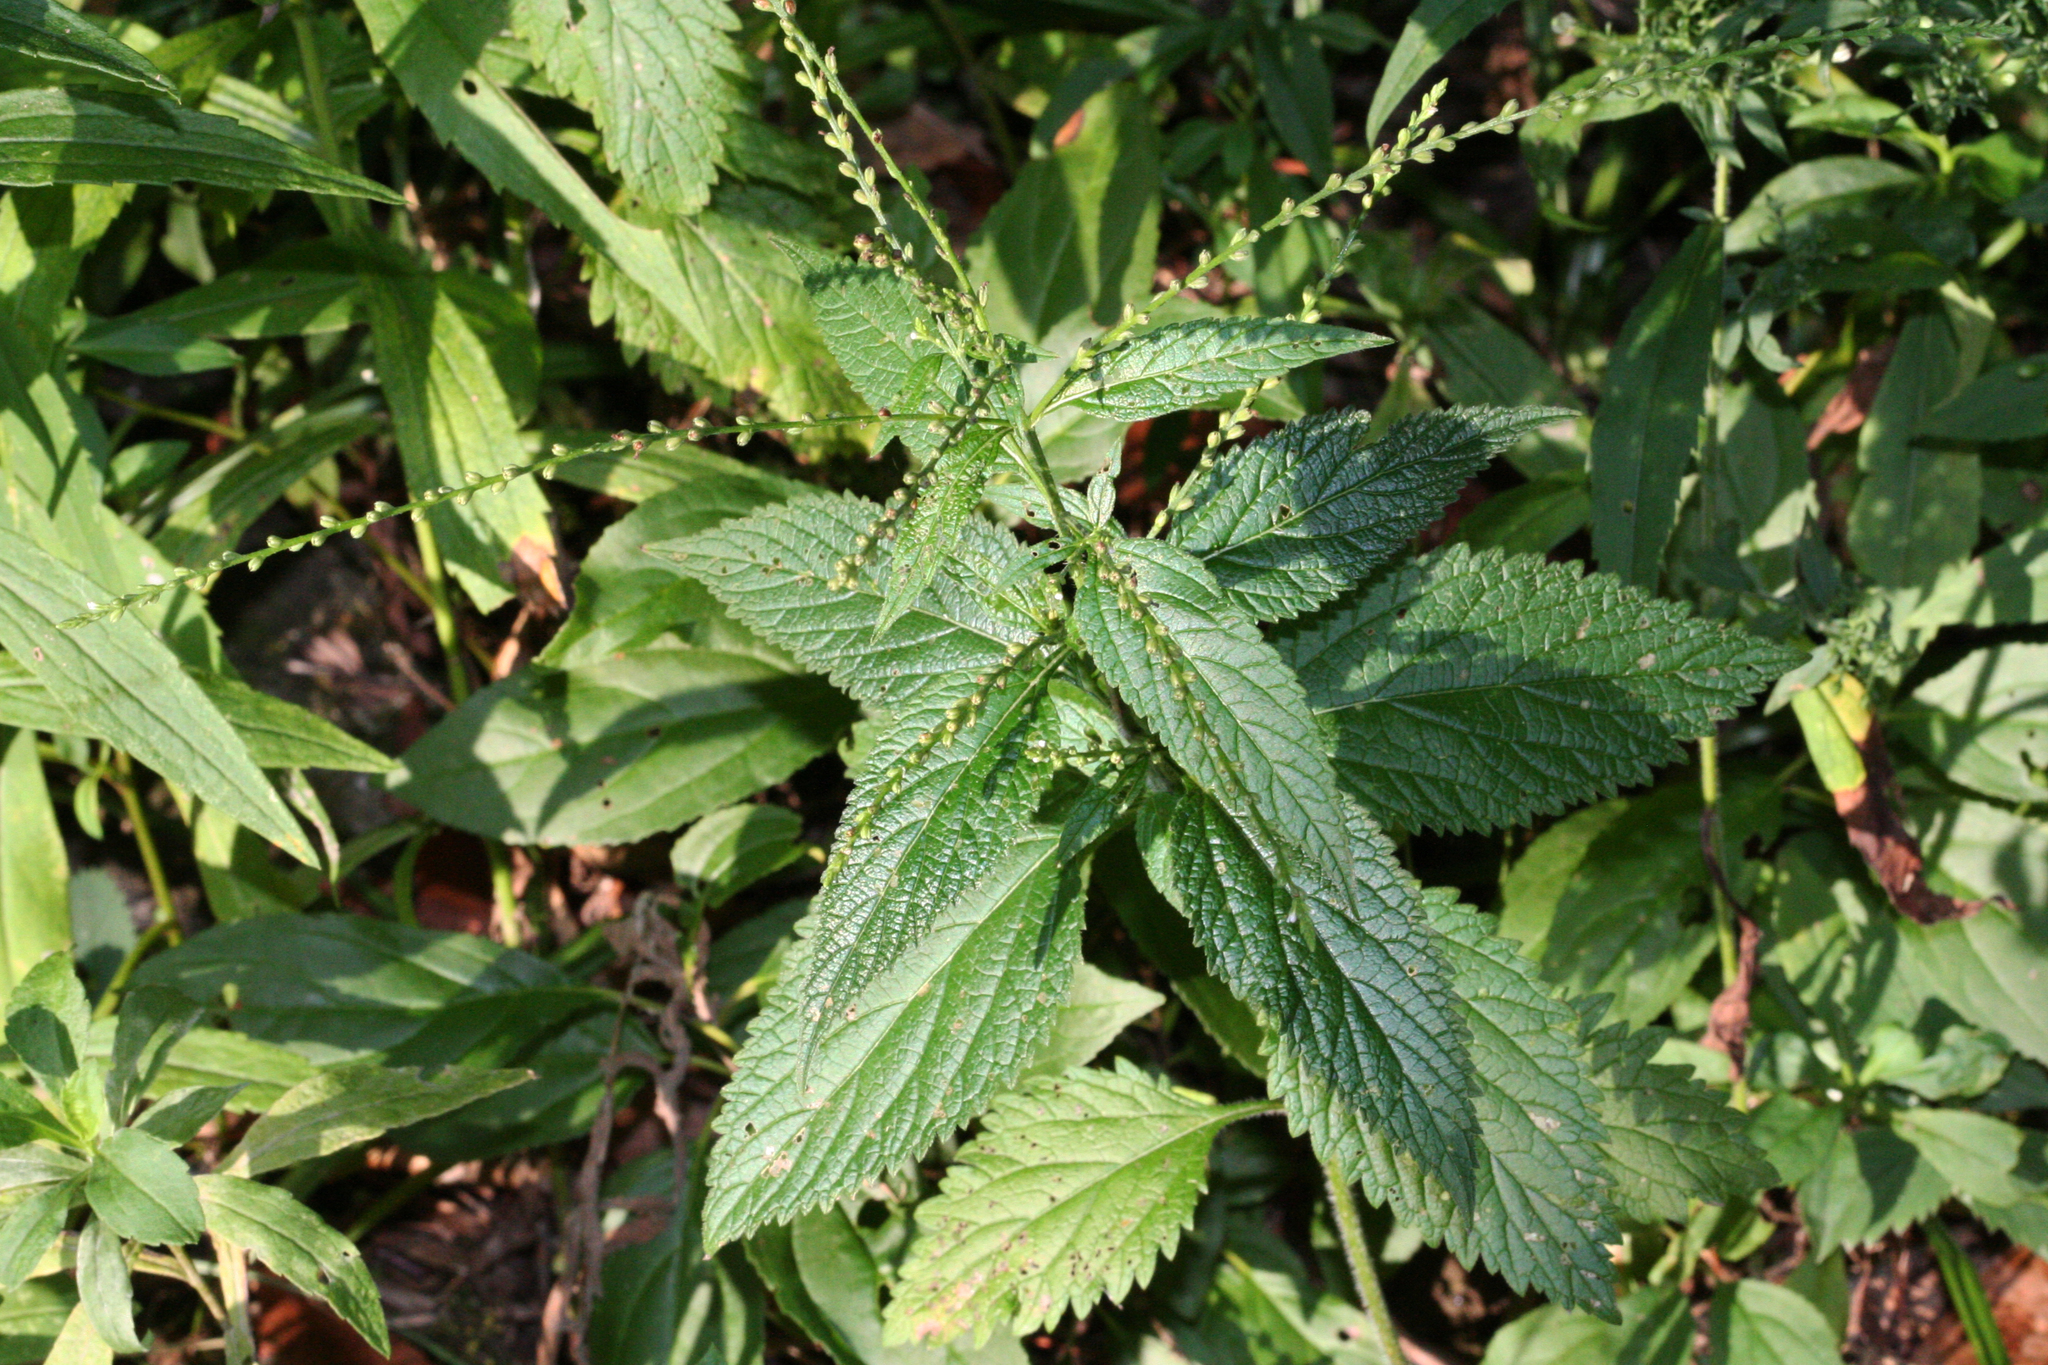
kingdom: Plantae
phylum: Tracheophyta
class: Magnoliopsida
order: Lamiales
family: Verbenaceae
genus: Verbena
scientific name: Verbena urticifolia
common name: Nettle-leaved vervain
